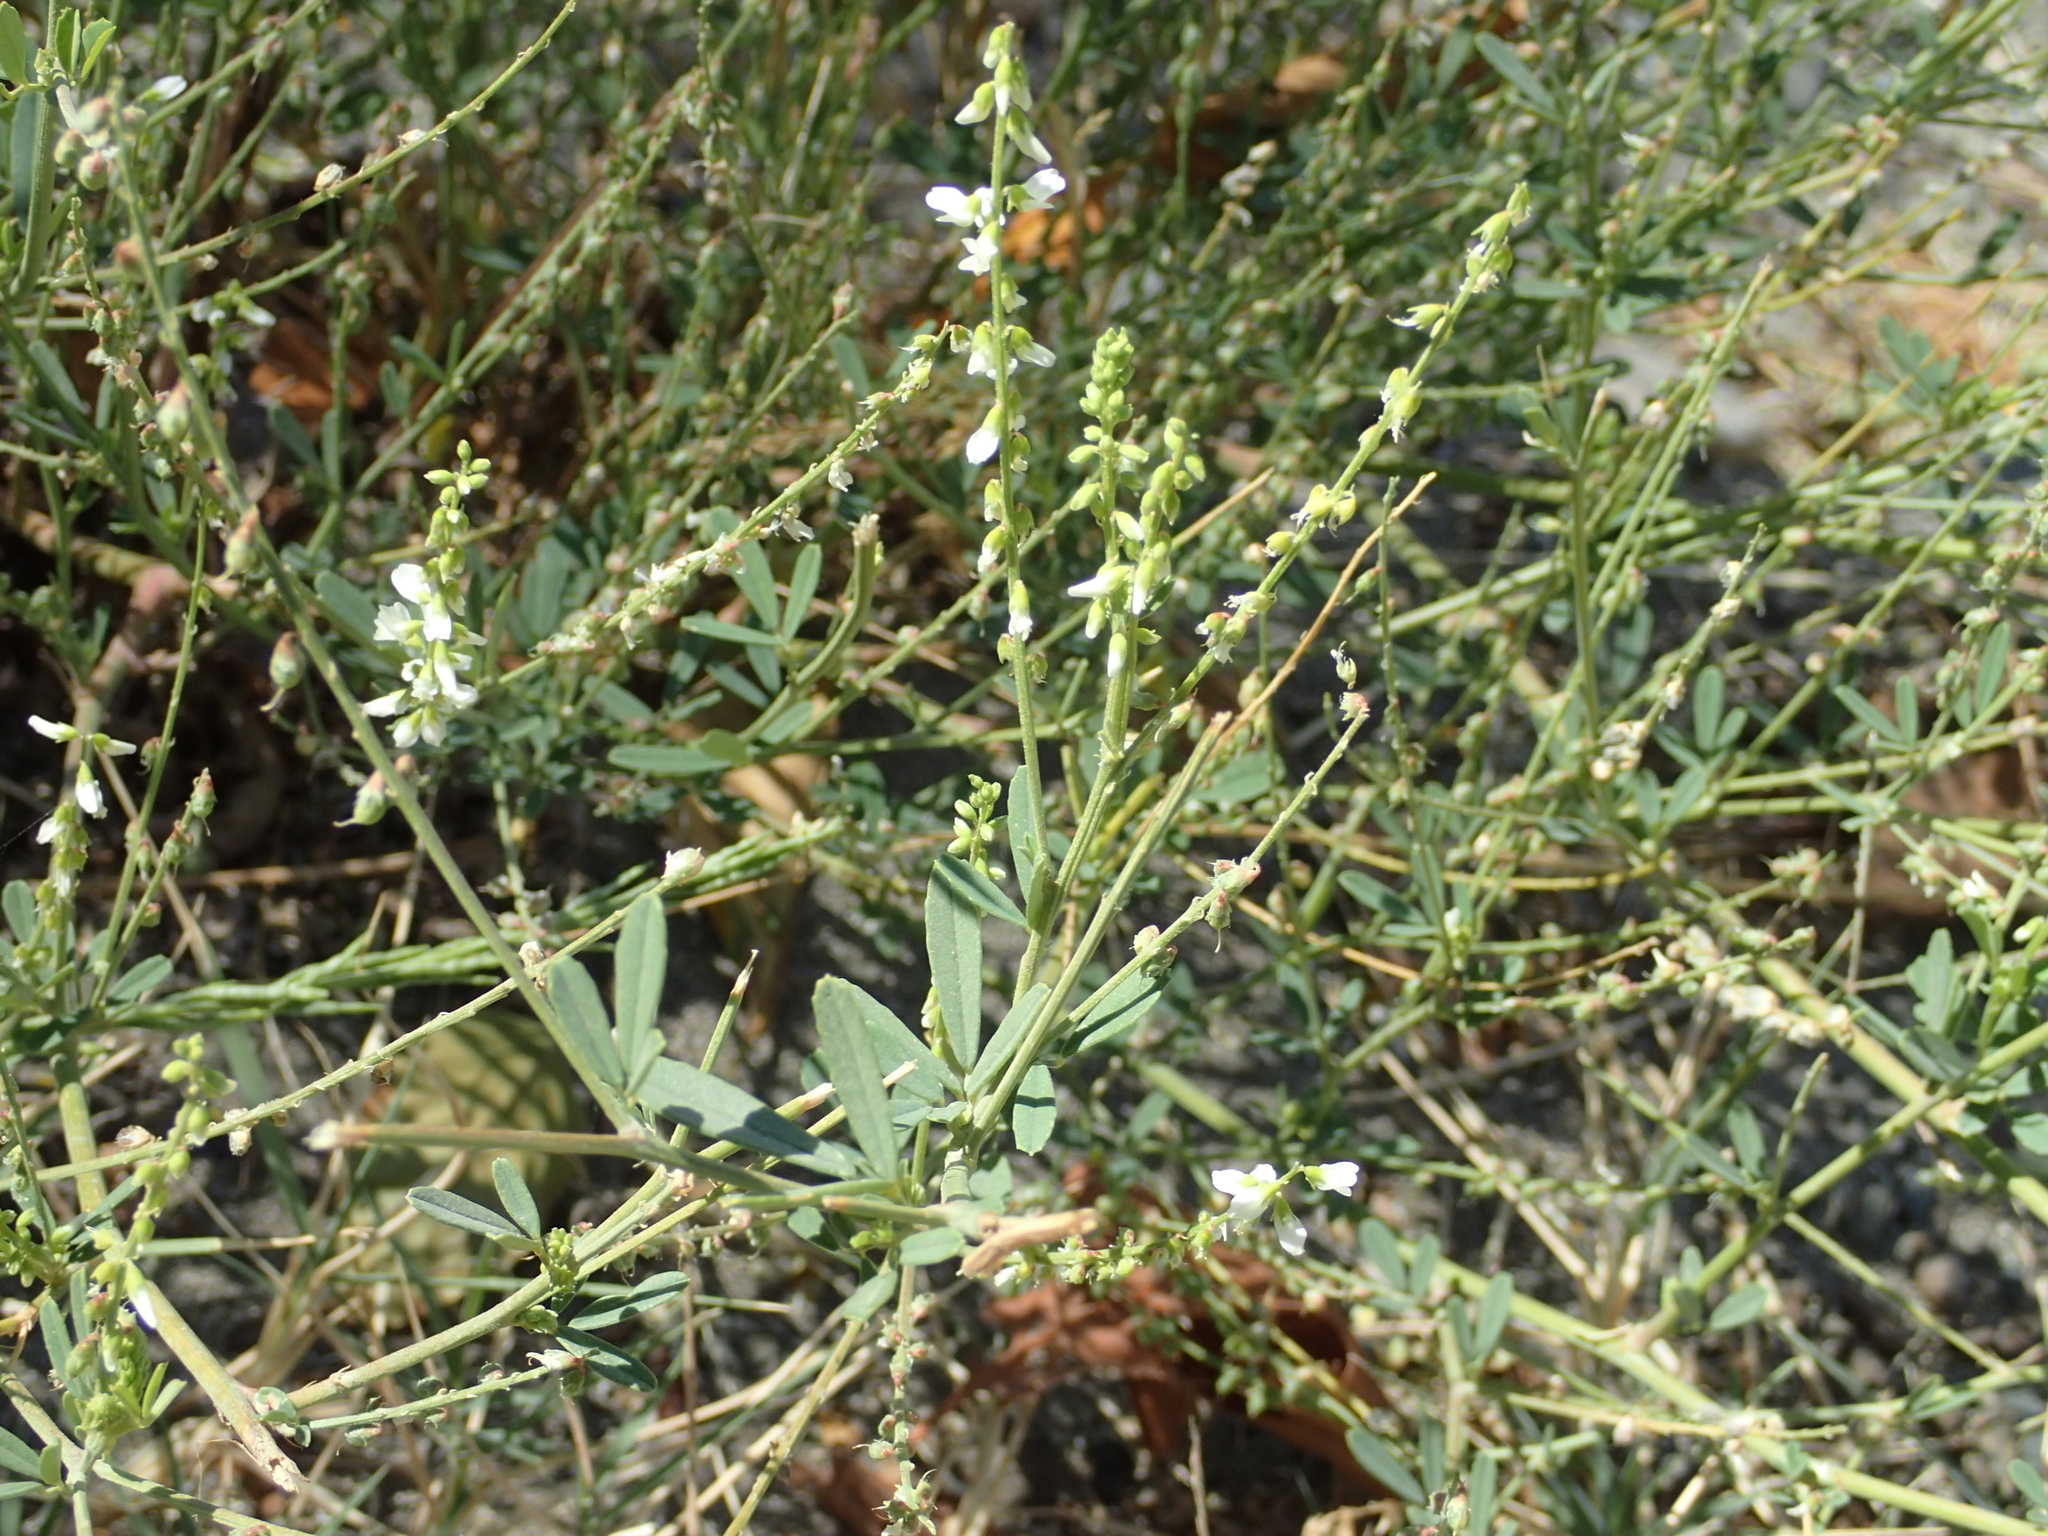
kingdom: Plantae
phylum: Tracheophyta
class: Magnoliopsida
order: Fabales
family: Fabaceae
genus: Melilotus
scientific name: Melilotus albus
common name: White melilot
